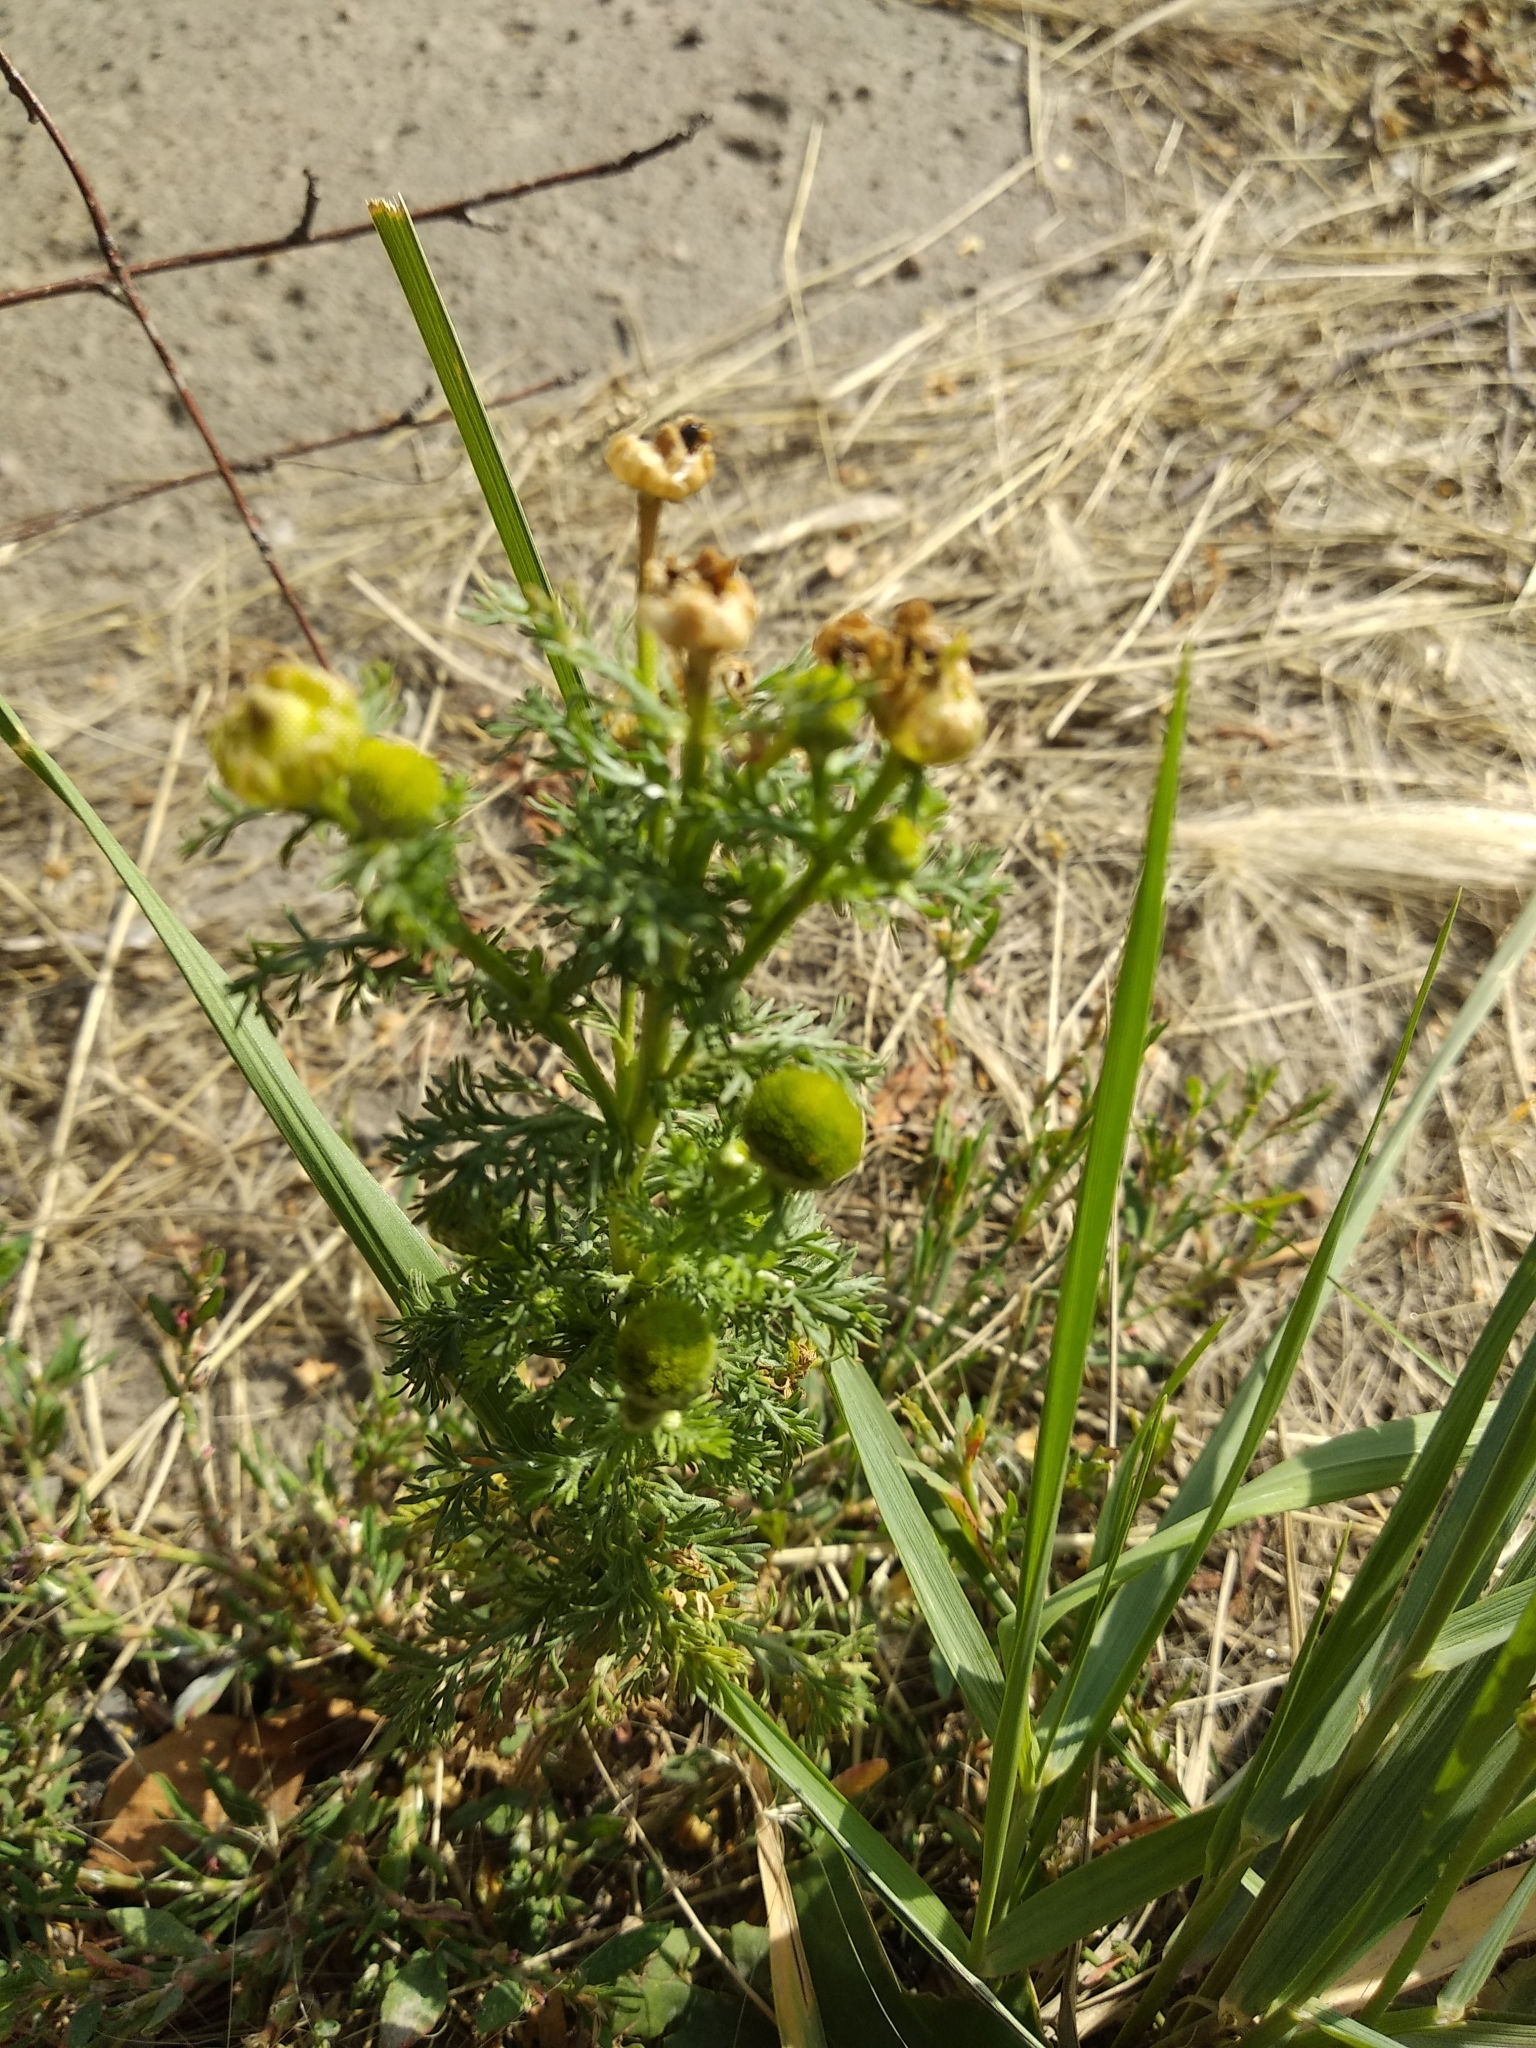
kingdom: Plantae
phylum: Tracheophyta
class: Magnoliopsida
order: Asterales
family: Asteraceae
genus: Matricaria
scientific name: Matricaria discoidea
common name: Disc mayweed
